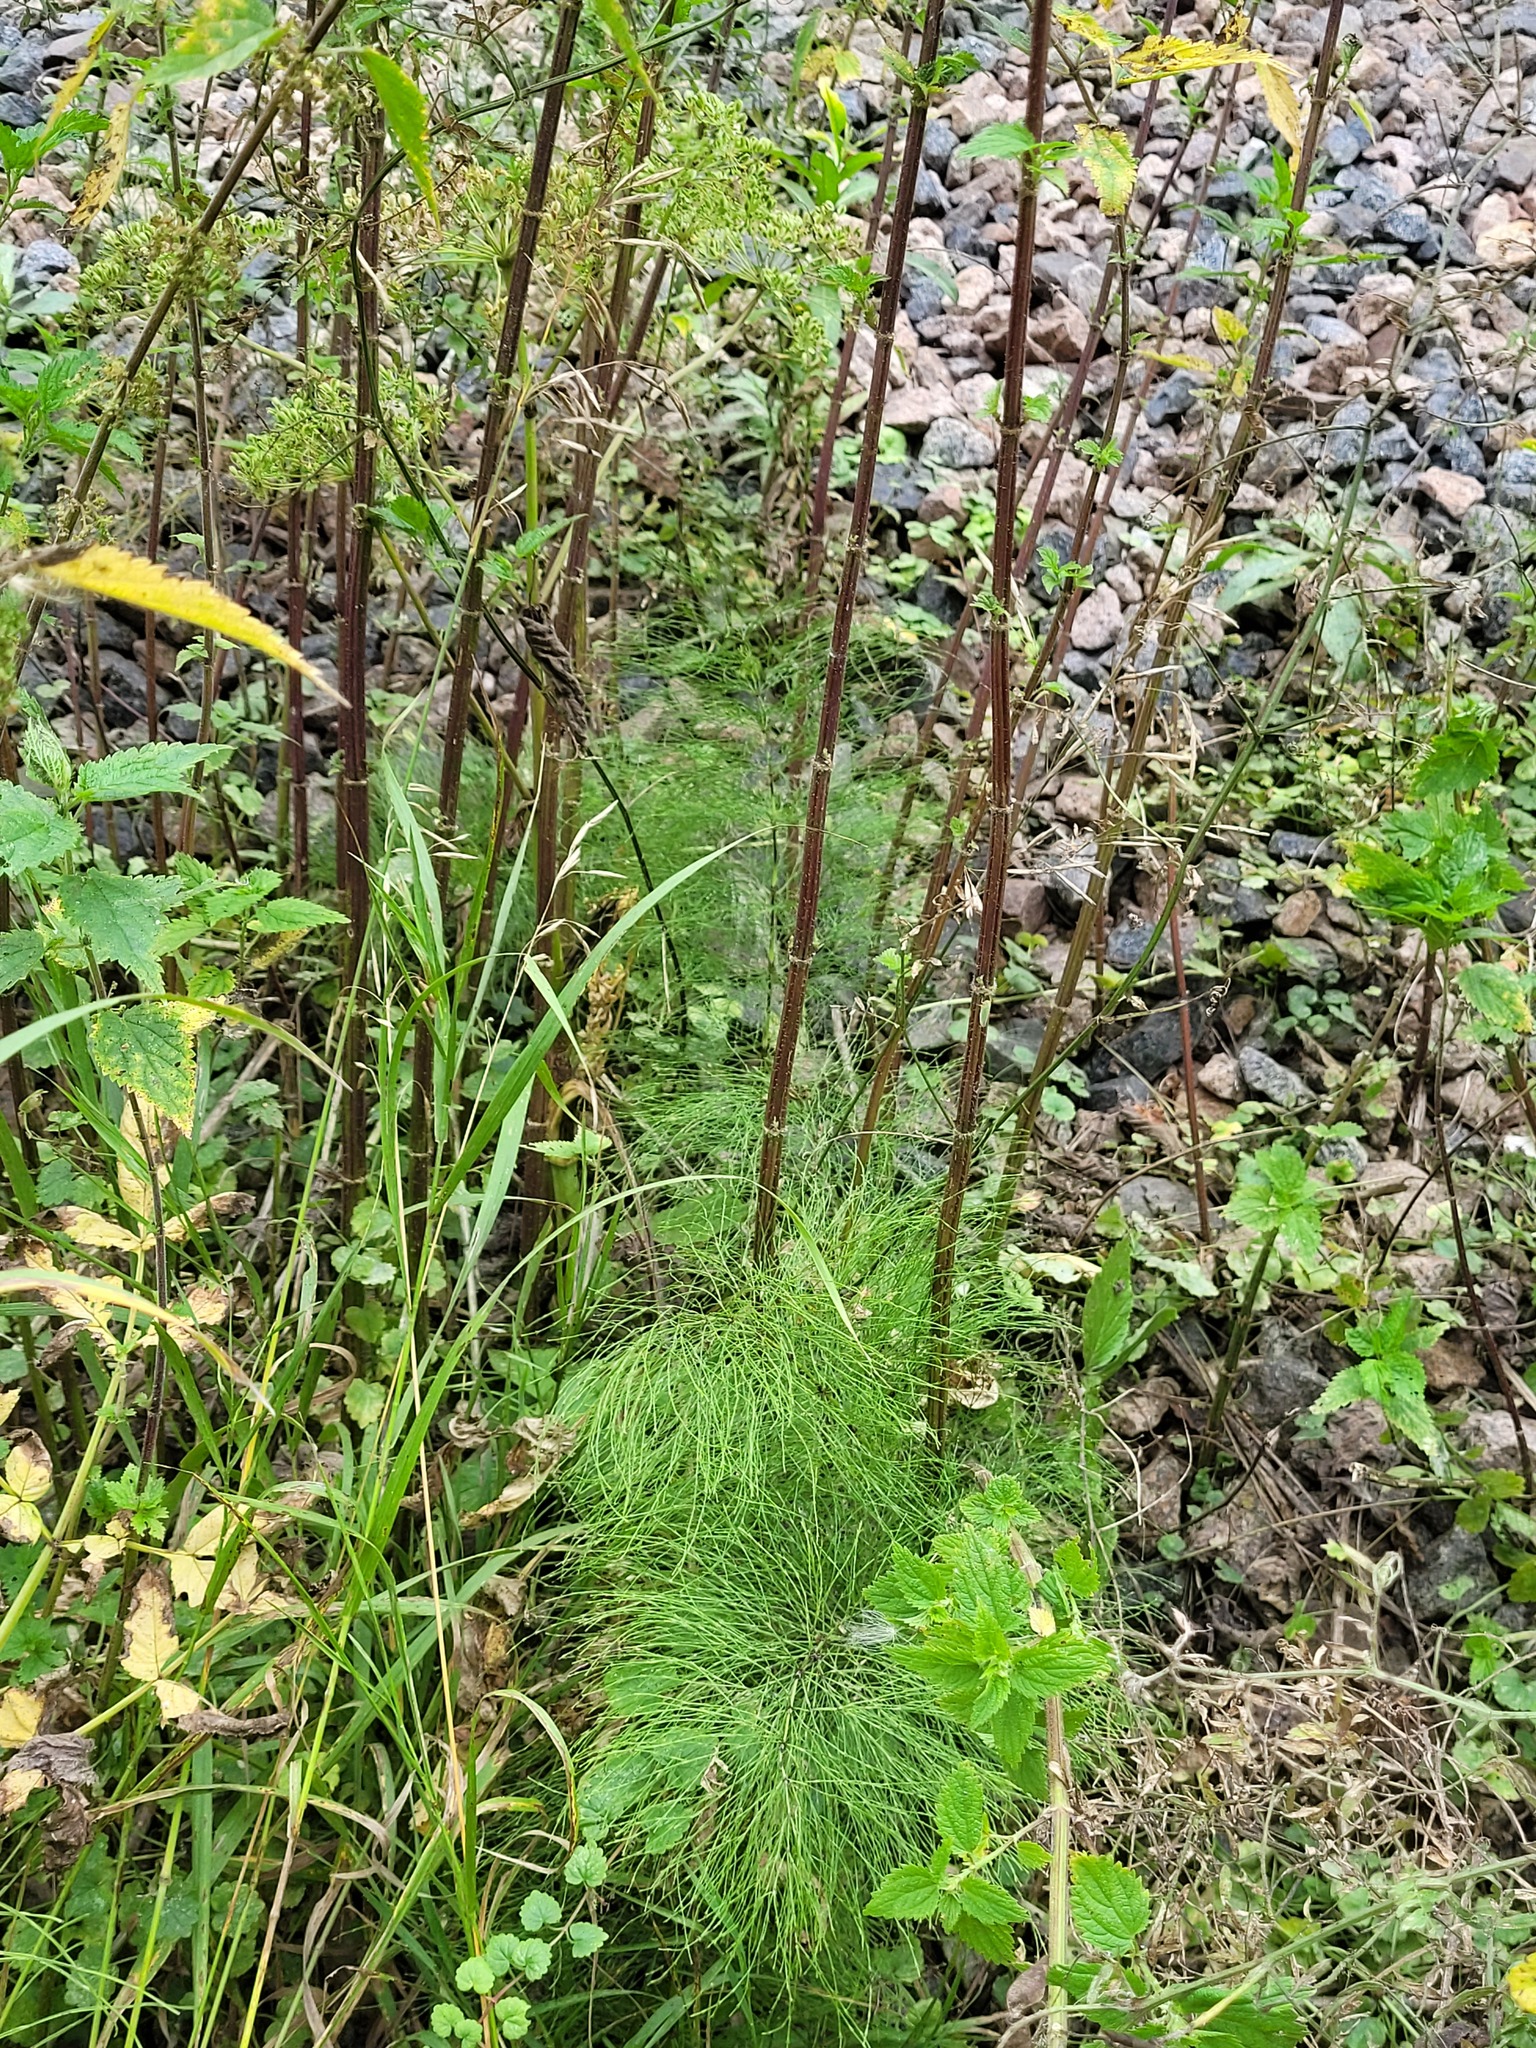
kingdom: Plantae
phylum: Tracheophyta
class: Polypodiopsida
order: Equisetales
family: Equisetaceae
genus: Equisetum
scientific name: Equisetum sylvaticum
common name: Wood horsetail
